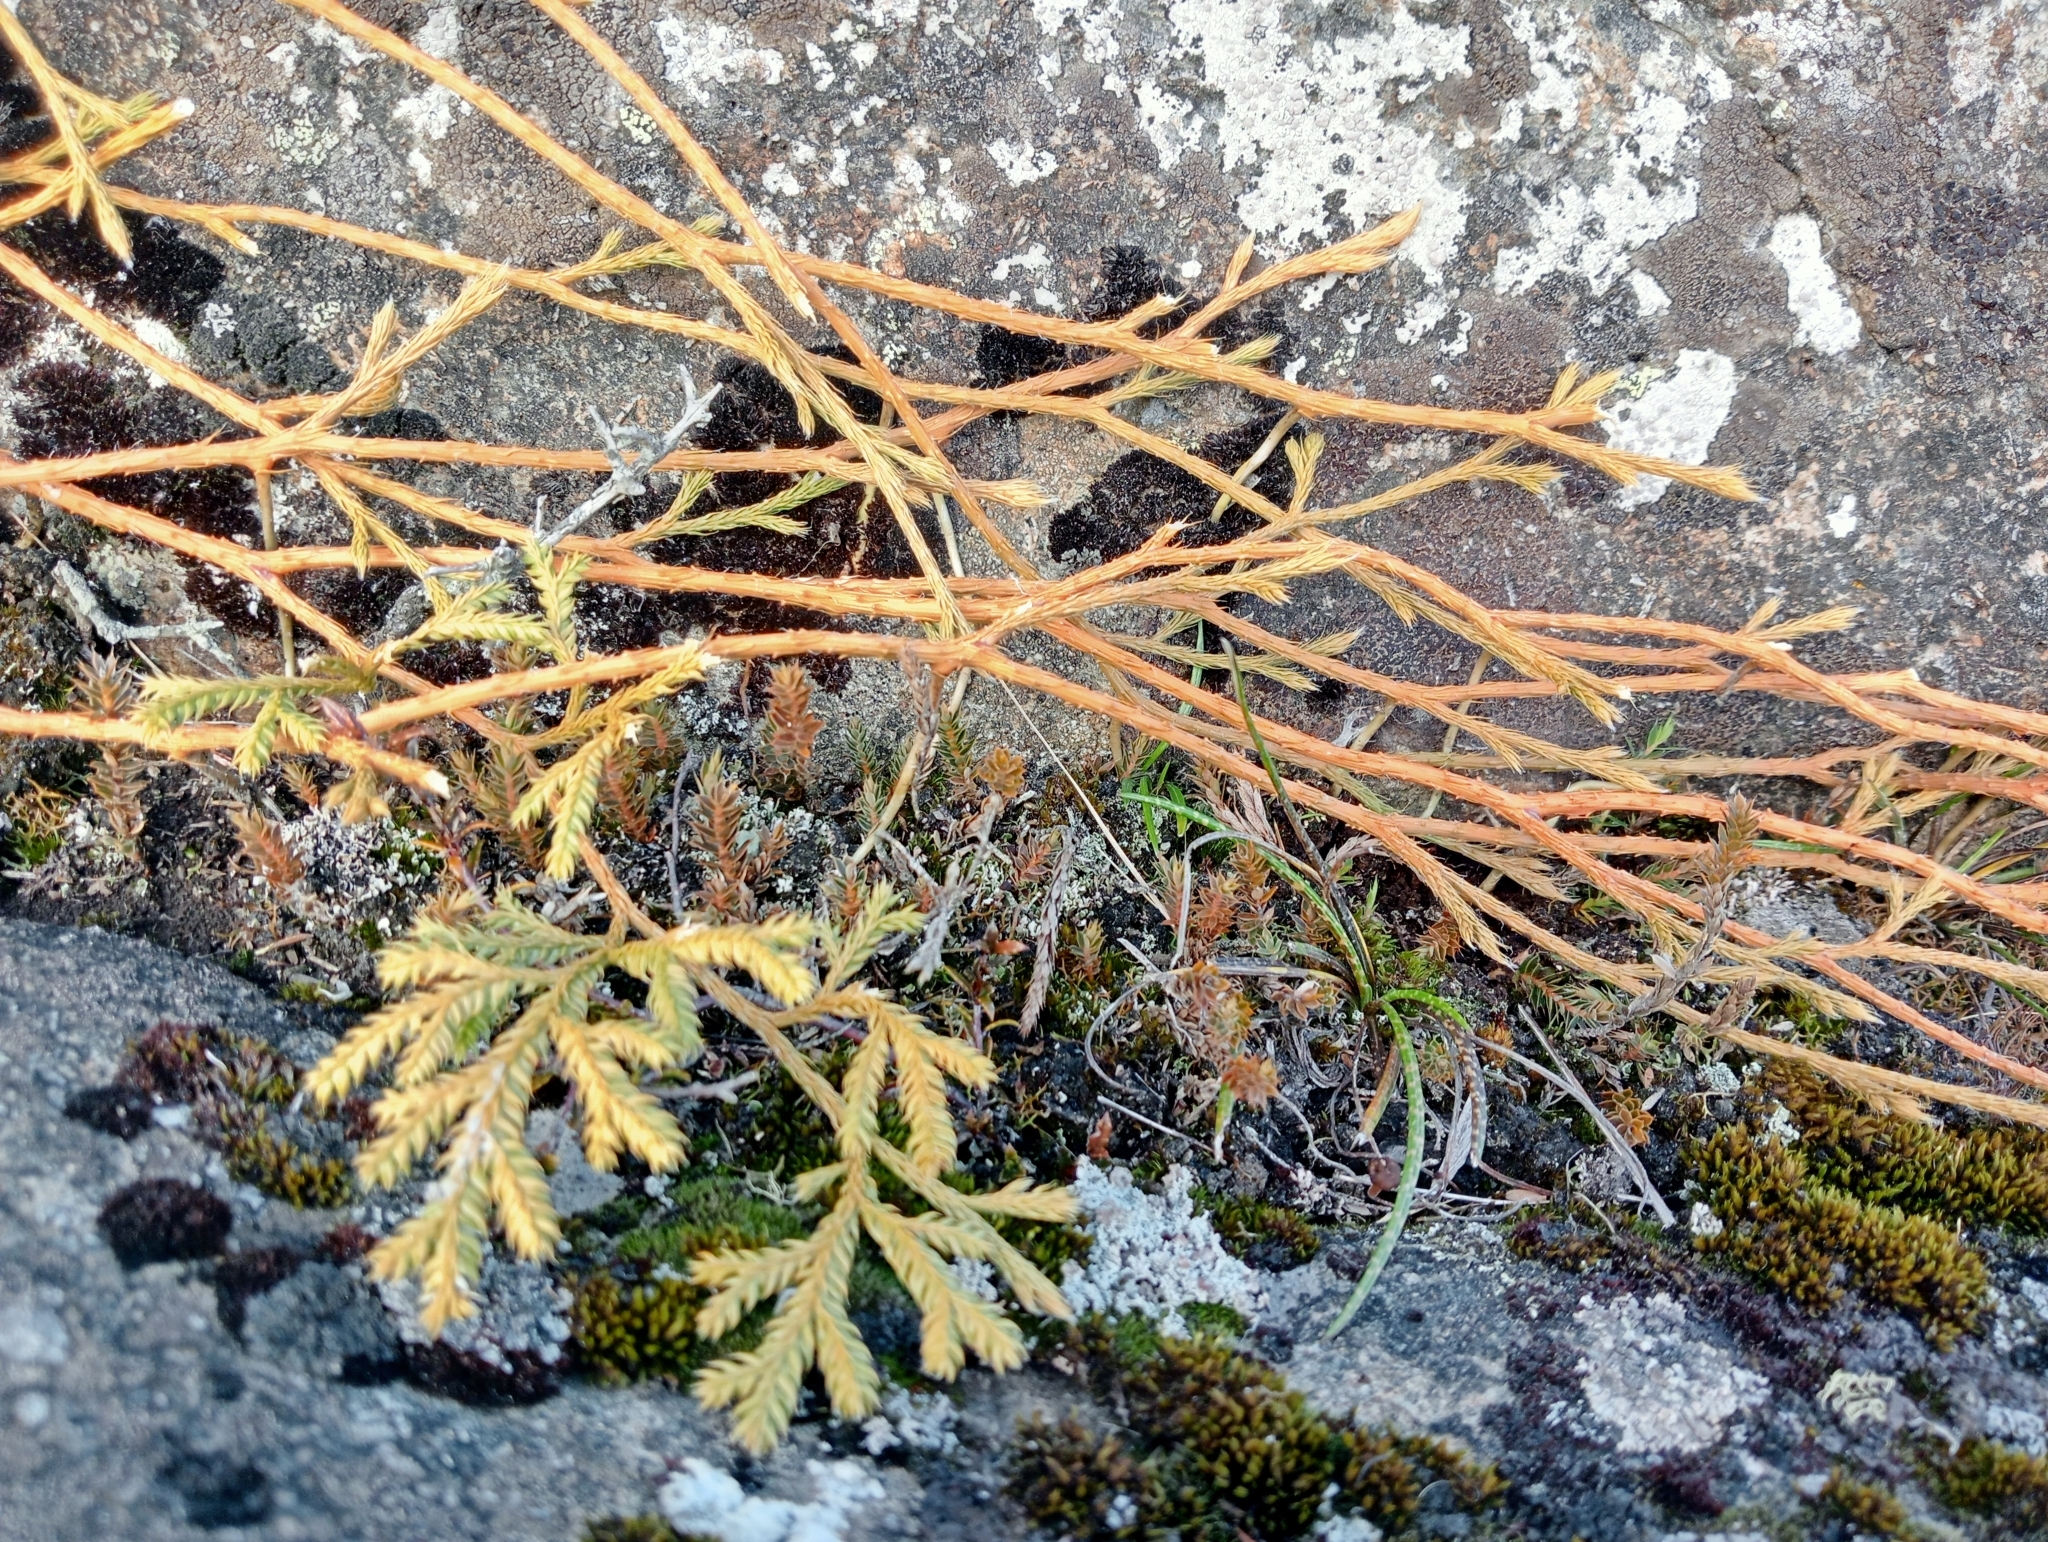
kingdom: Plantae
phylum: Tracheophyta
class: Lycopodiopsida
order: Lycopodiales
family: Lycopodiaceae
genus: Lycopodium
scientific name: Lycopodium volubile
